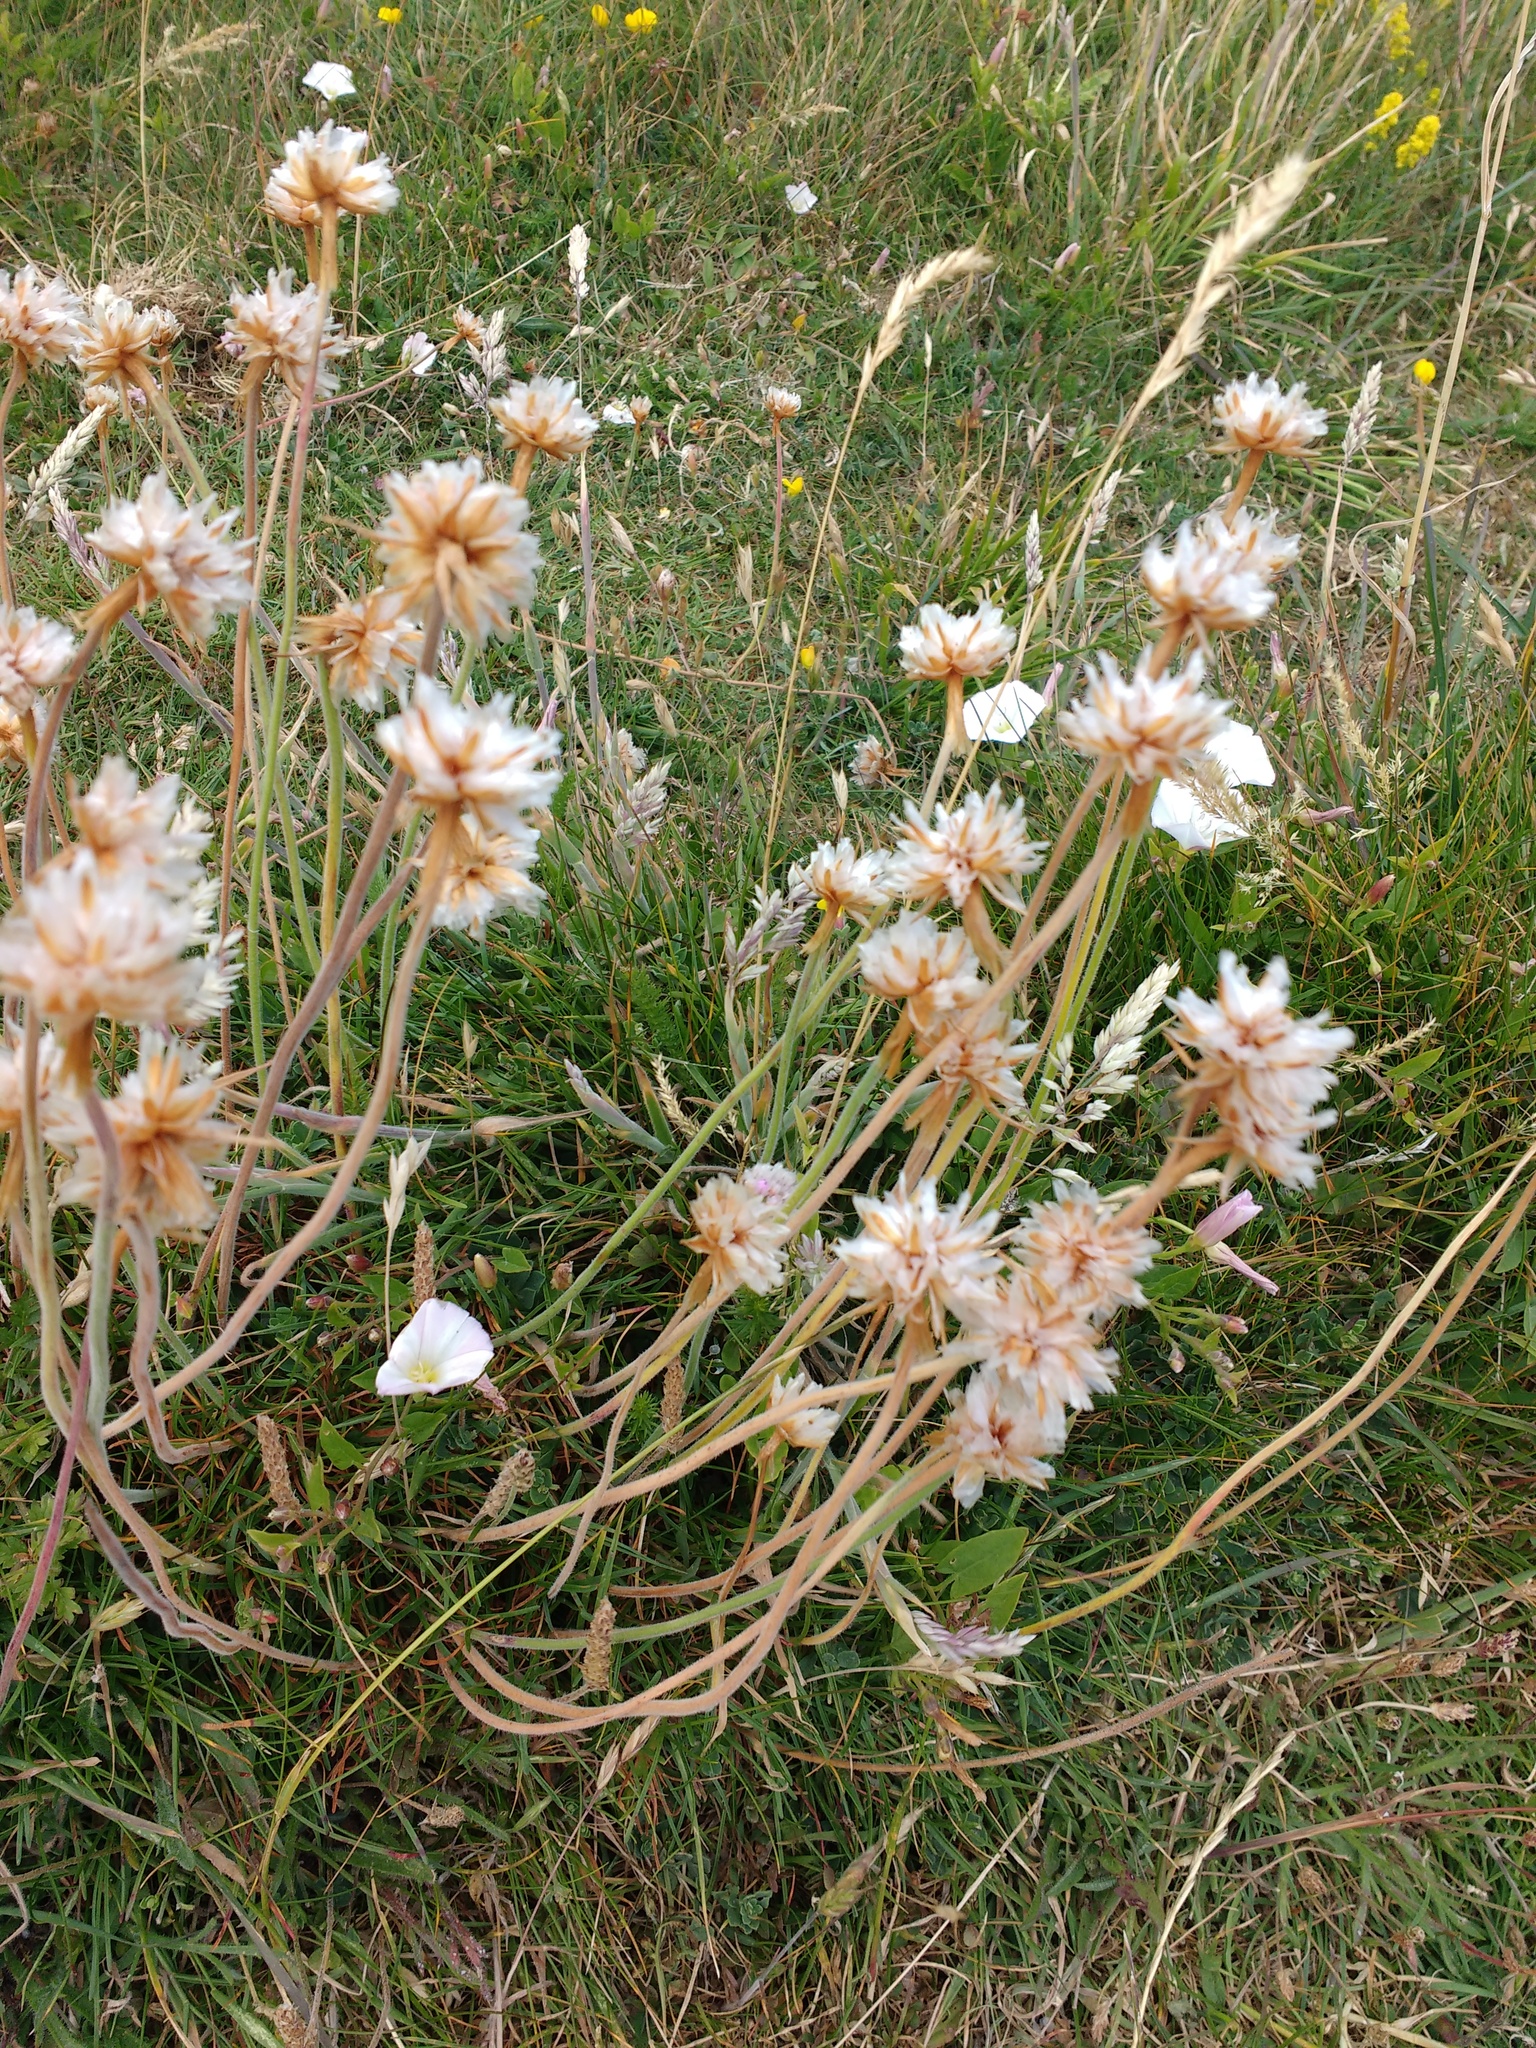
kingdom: Plantae
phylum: Tracheophyta
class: Magnoliopsida
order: Caryophyllales
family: Plumbaginaceae
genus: Armeria
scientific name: Armeria maritima
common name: Thrift
